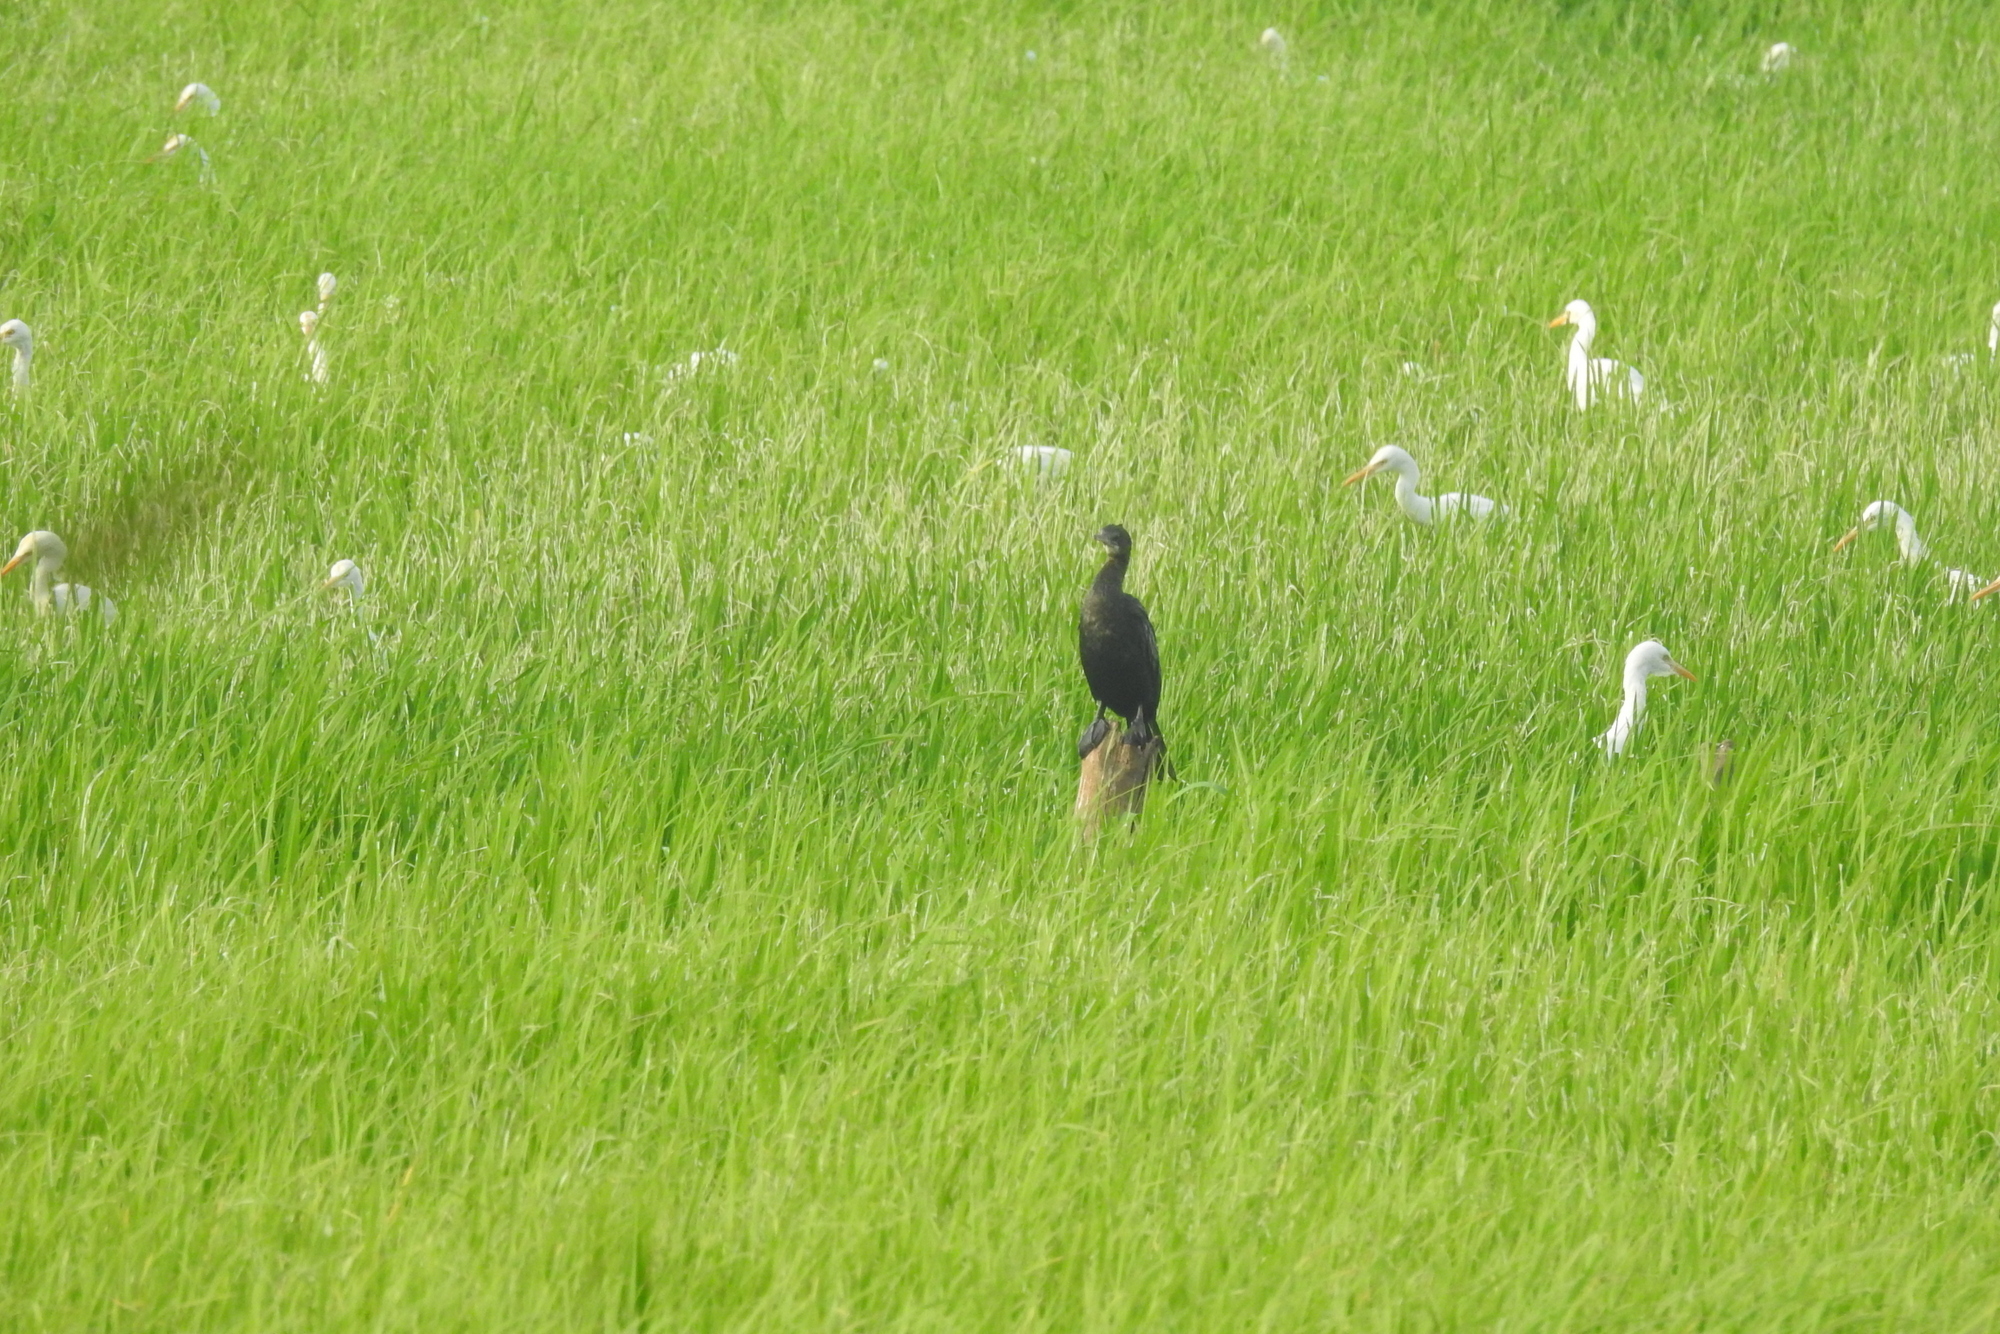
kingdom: Animalia
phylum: Chordata
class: Aves
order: Suliformes
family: Phalacrocoracidae
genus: Microcarbo
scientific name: Microcarbo niger
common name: Little cormorant
